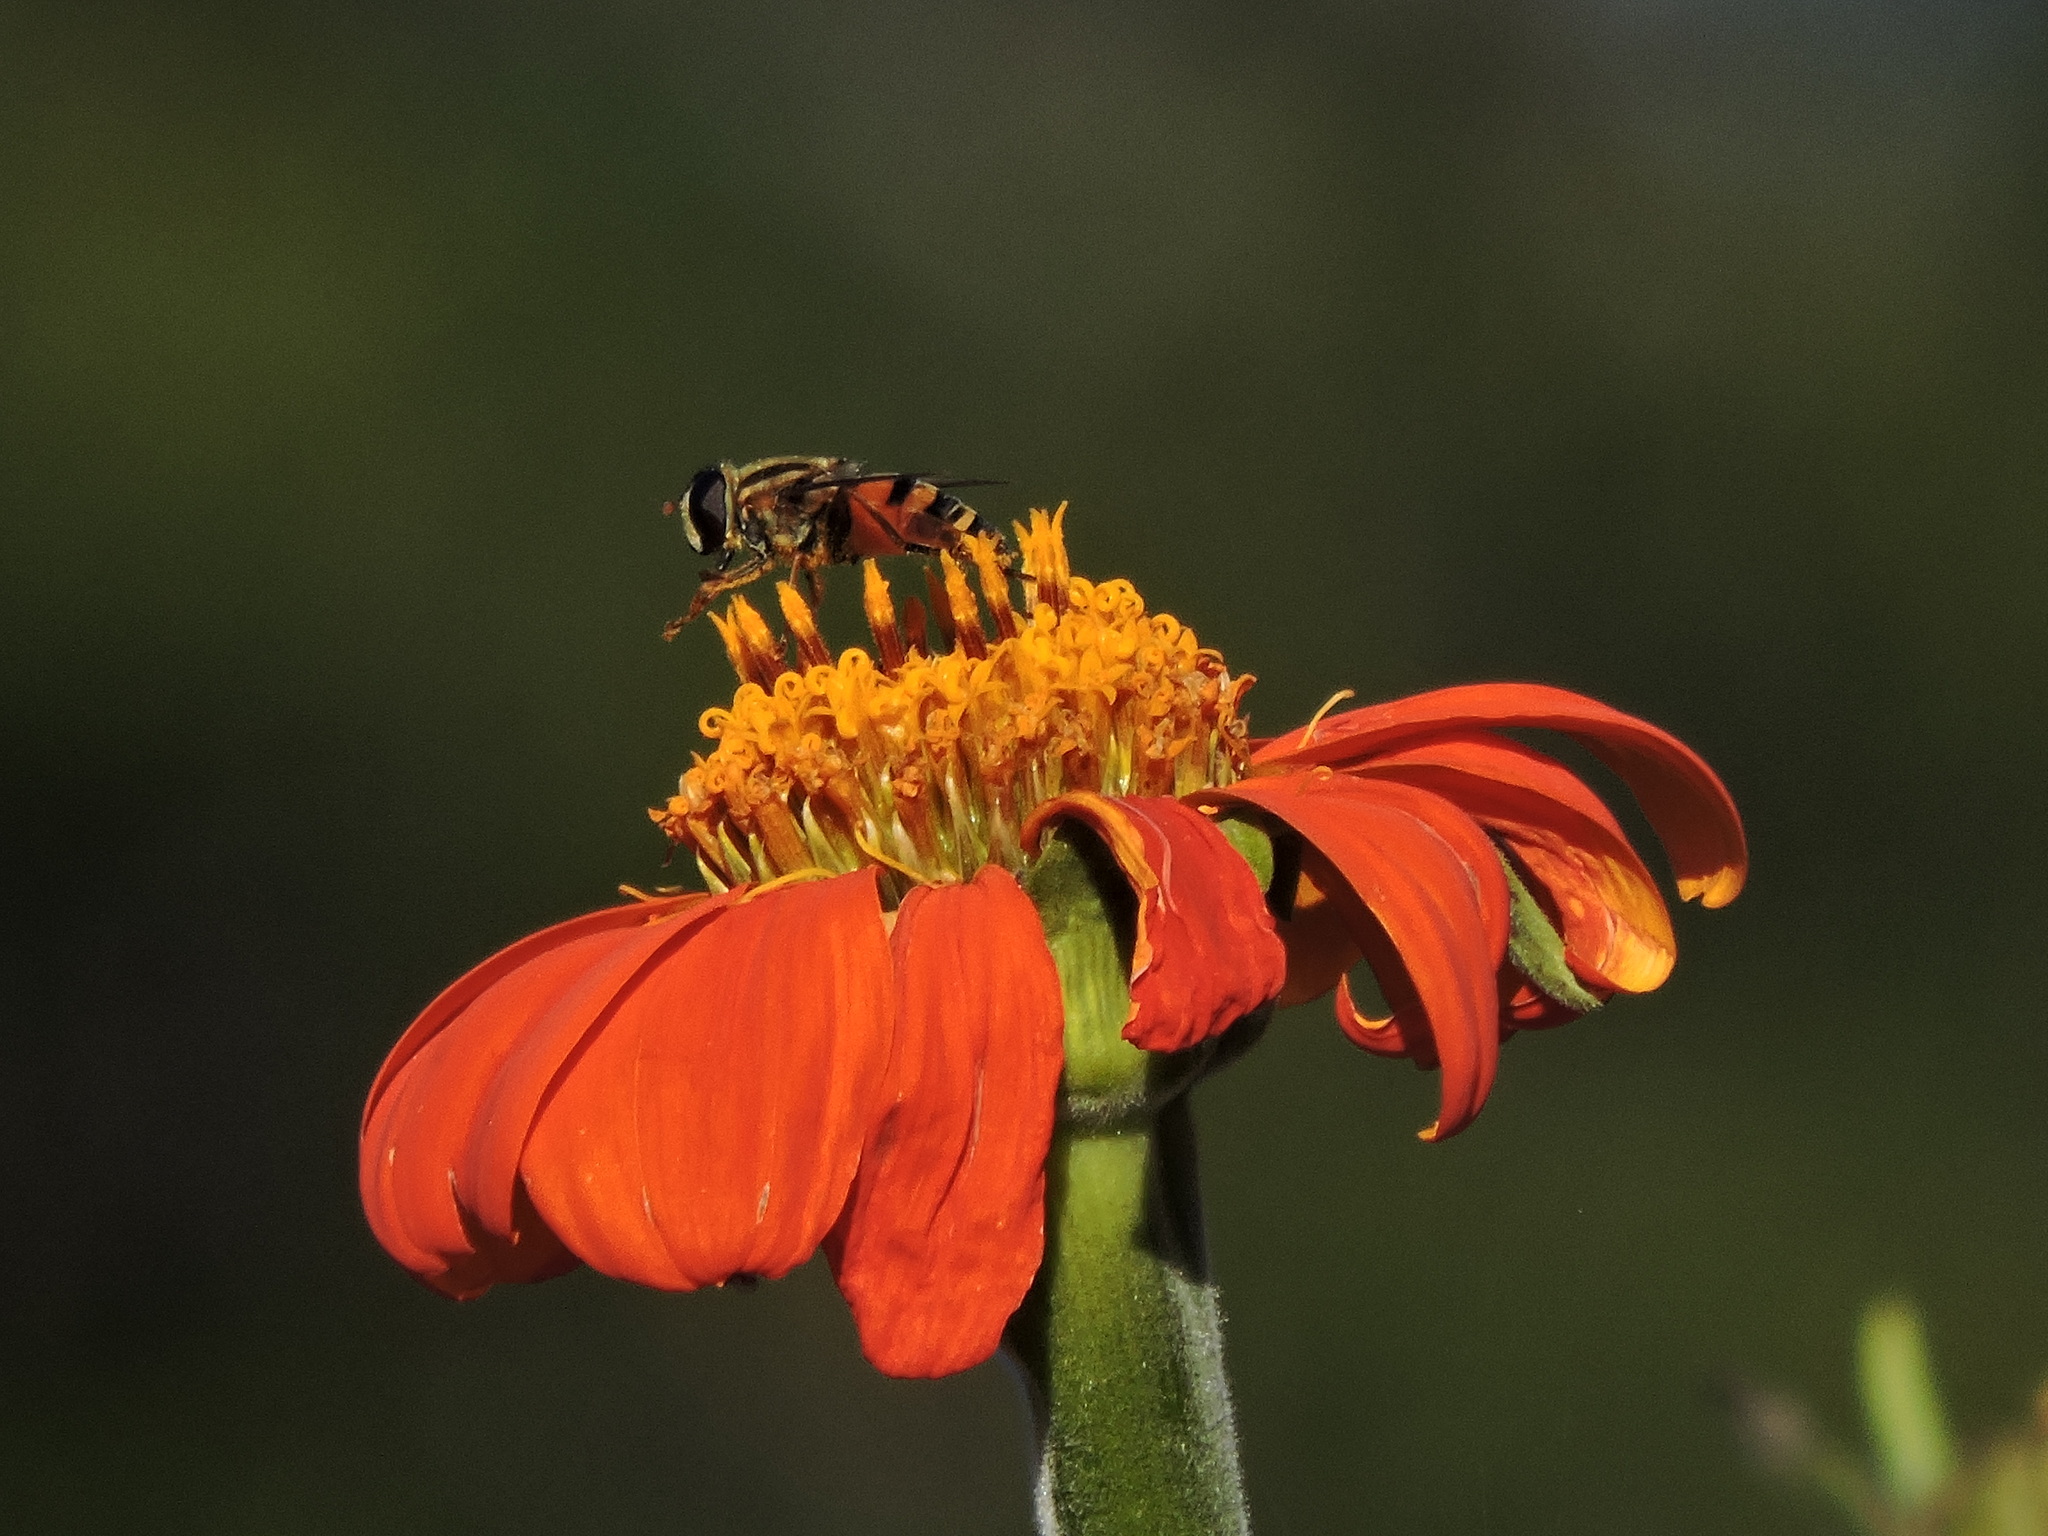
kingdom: Animalia
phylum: Arthropoda
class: Insecta
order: Diptera
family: Syrphidae
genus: Helophilus
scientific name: Helophilus fasciatus
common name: Narrow-headed marsh fly
